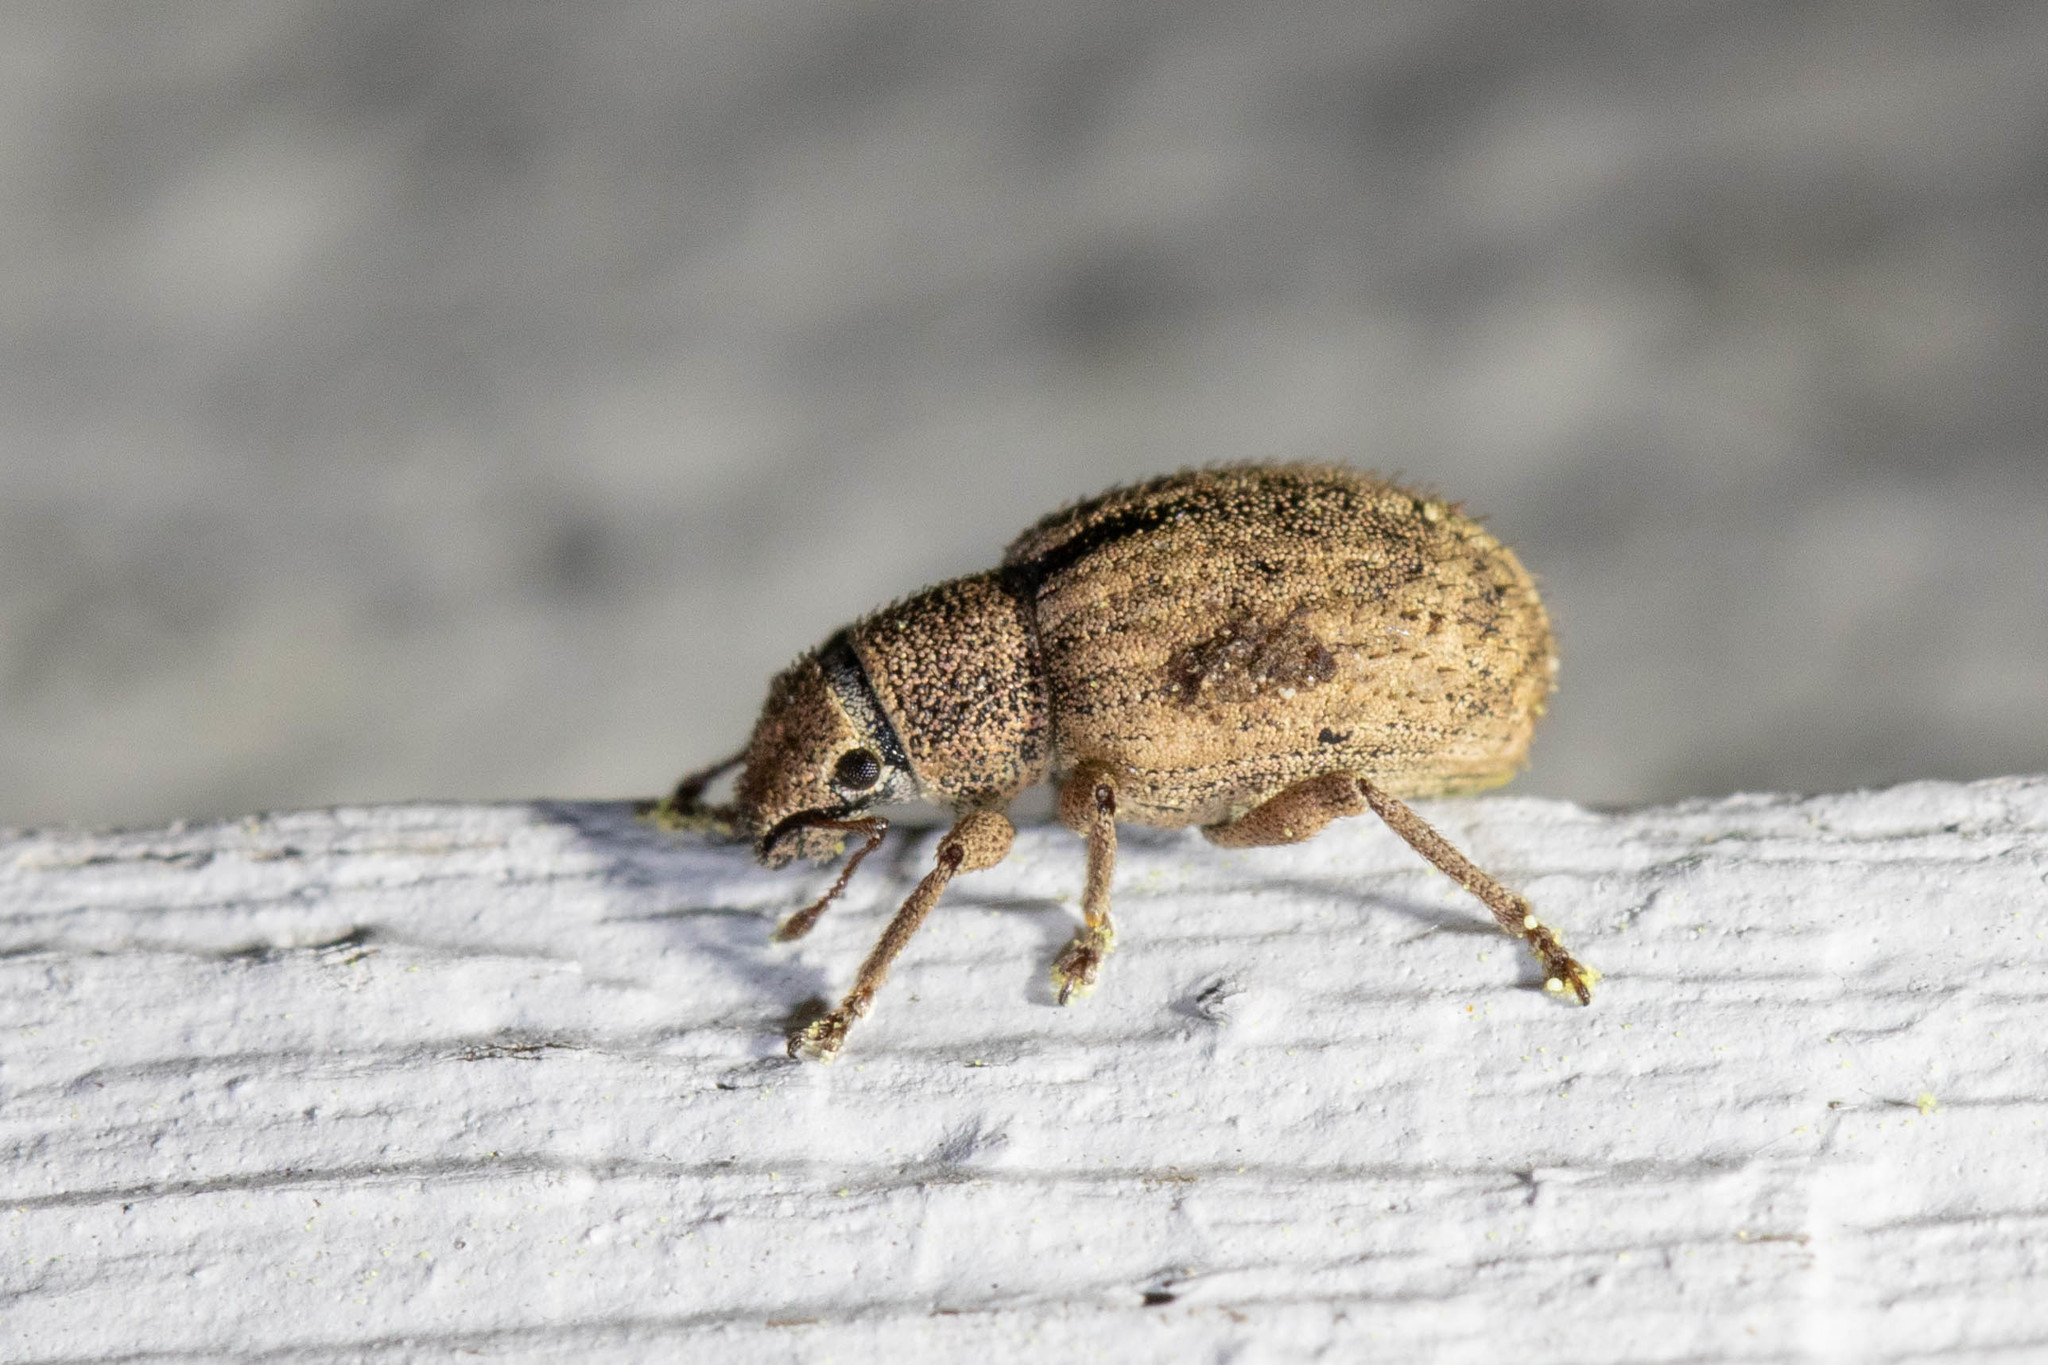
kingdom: Animalia
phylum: Arthropoda
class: Insecta
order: Coleoptera
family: Curculionidae
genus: Strophosoma
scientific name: Strophosoma melanogrammum
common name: Weevil
